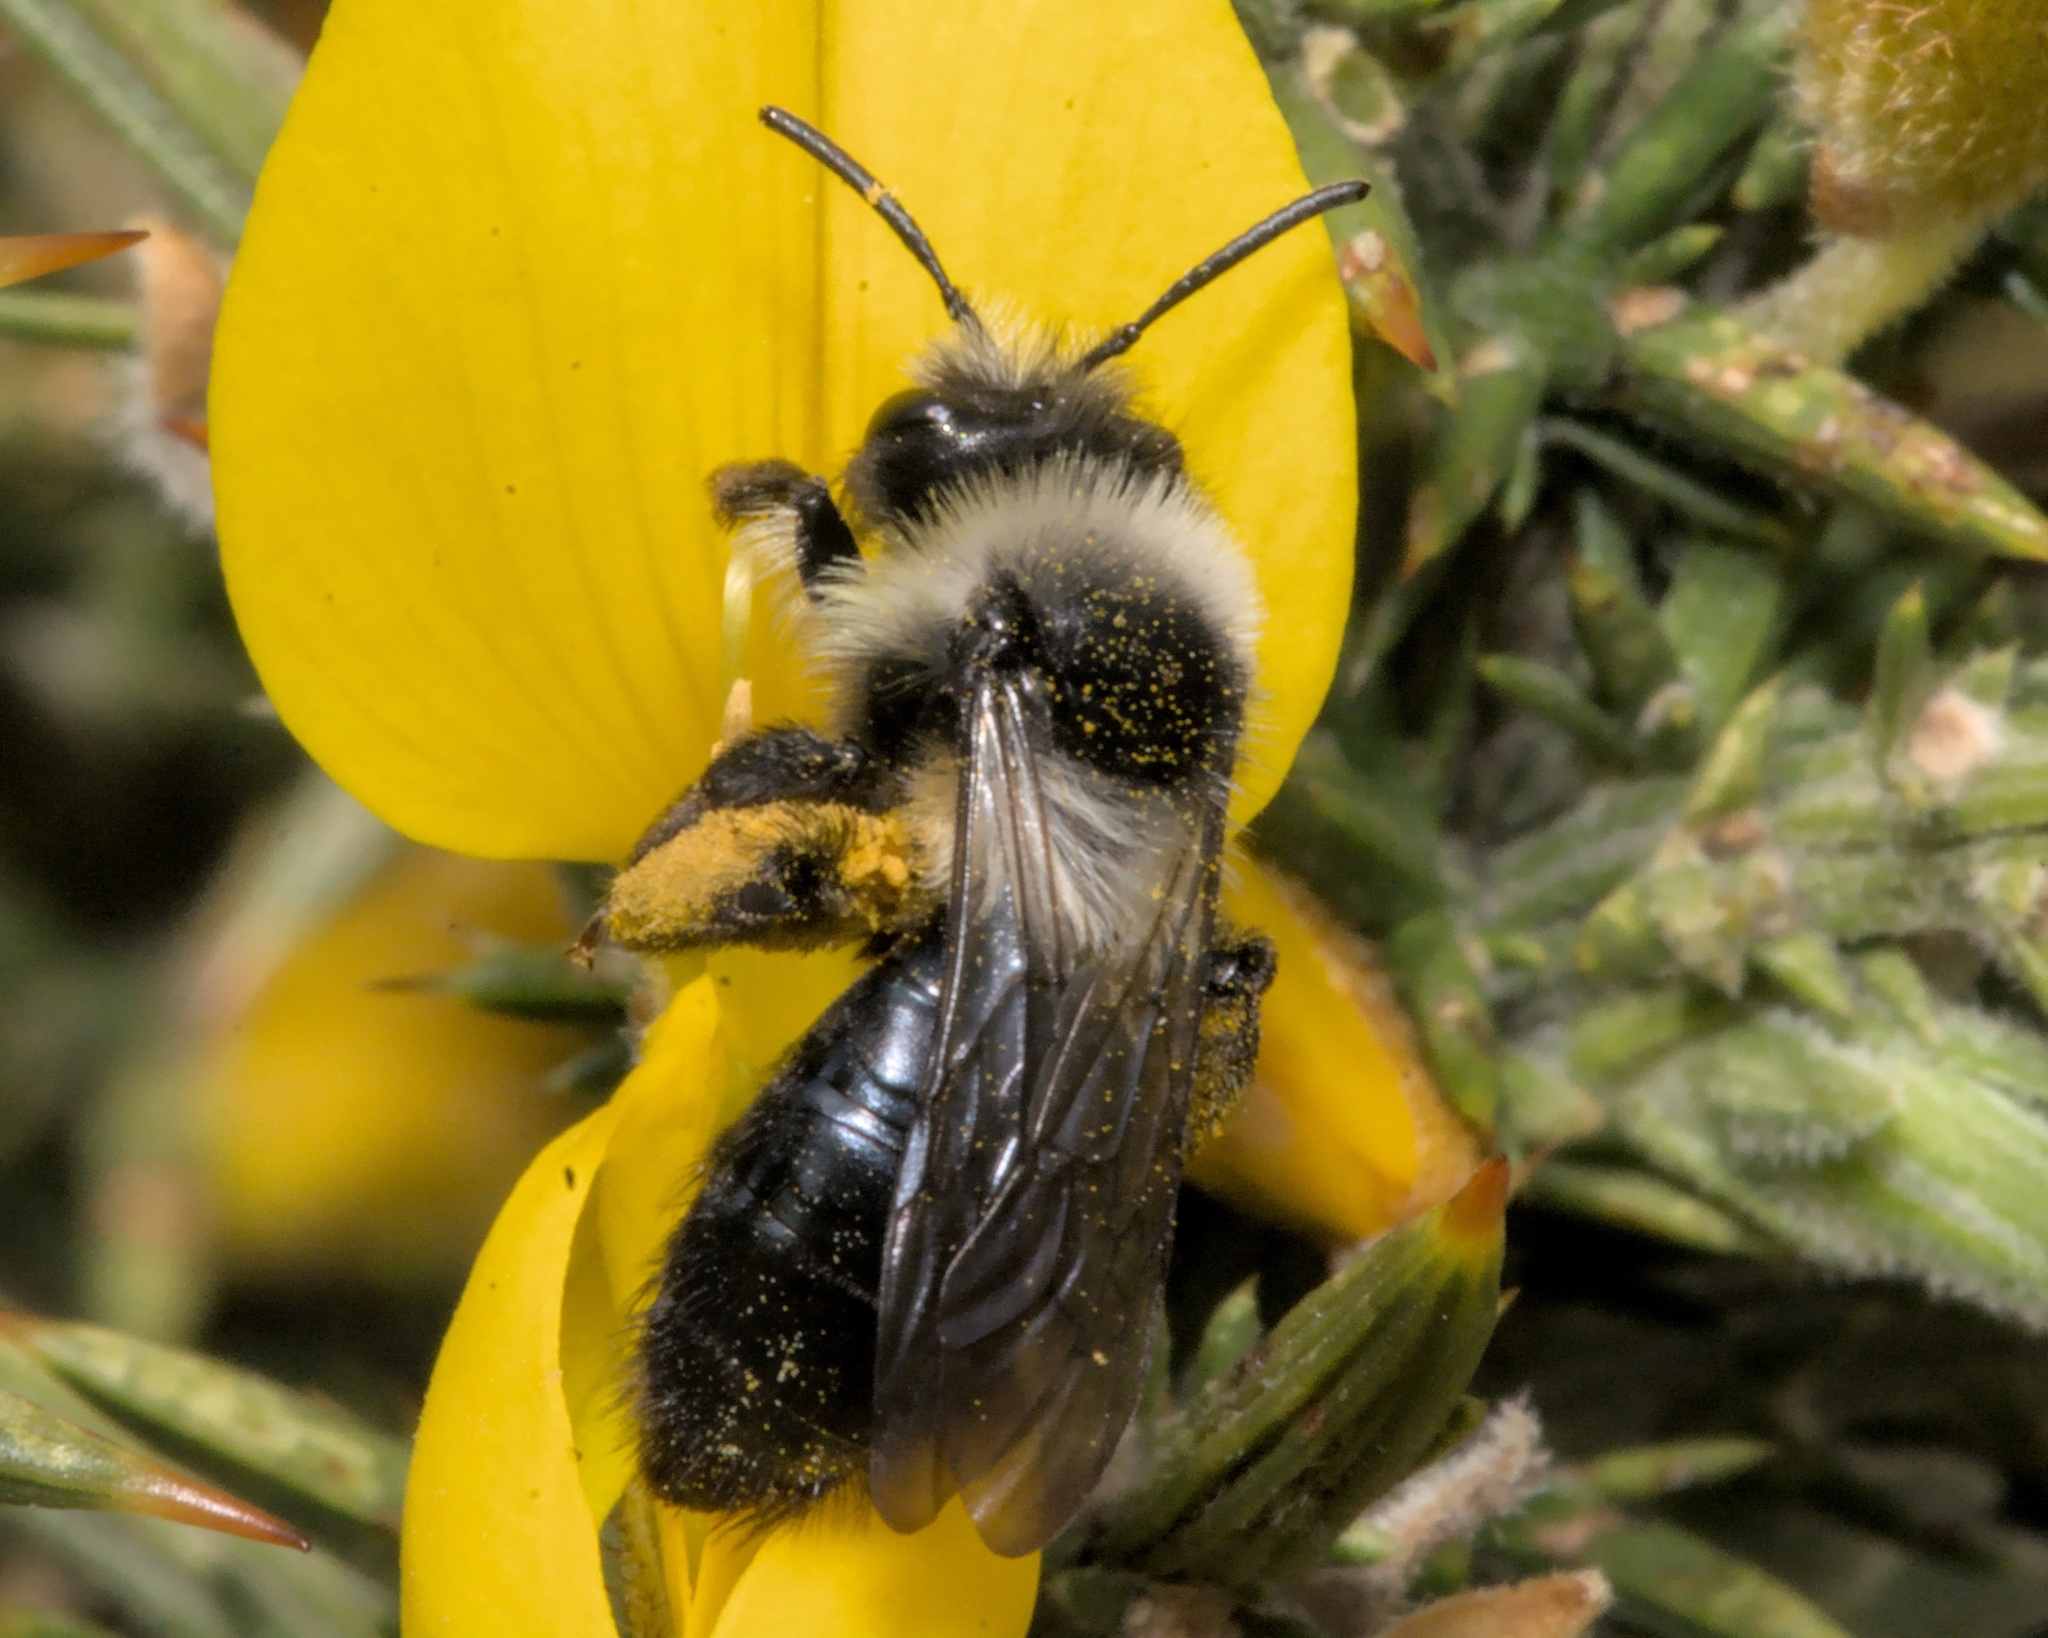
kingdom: Animalia
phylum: Arthropoda
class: Insecta
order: Hymenoptera
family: Andrenidae
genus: Andrena
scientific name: Andrena cineraria
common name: Ashy mining bee
